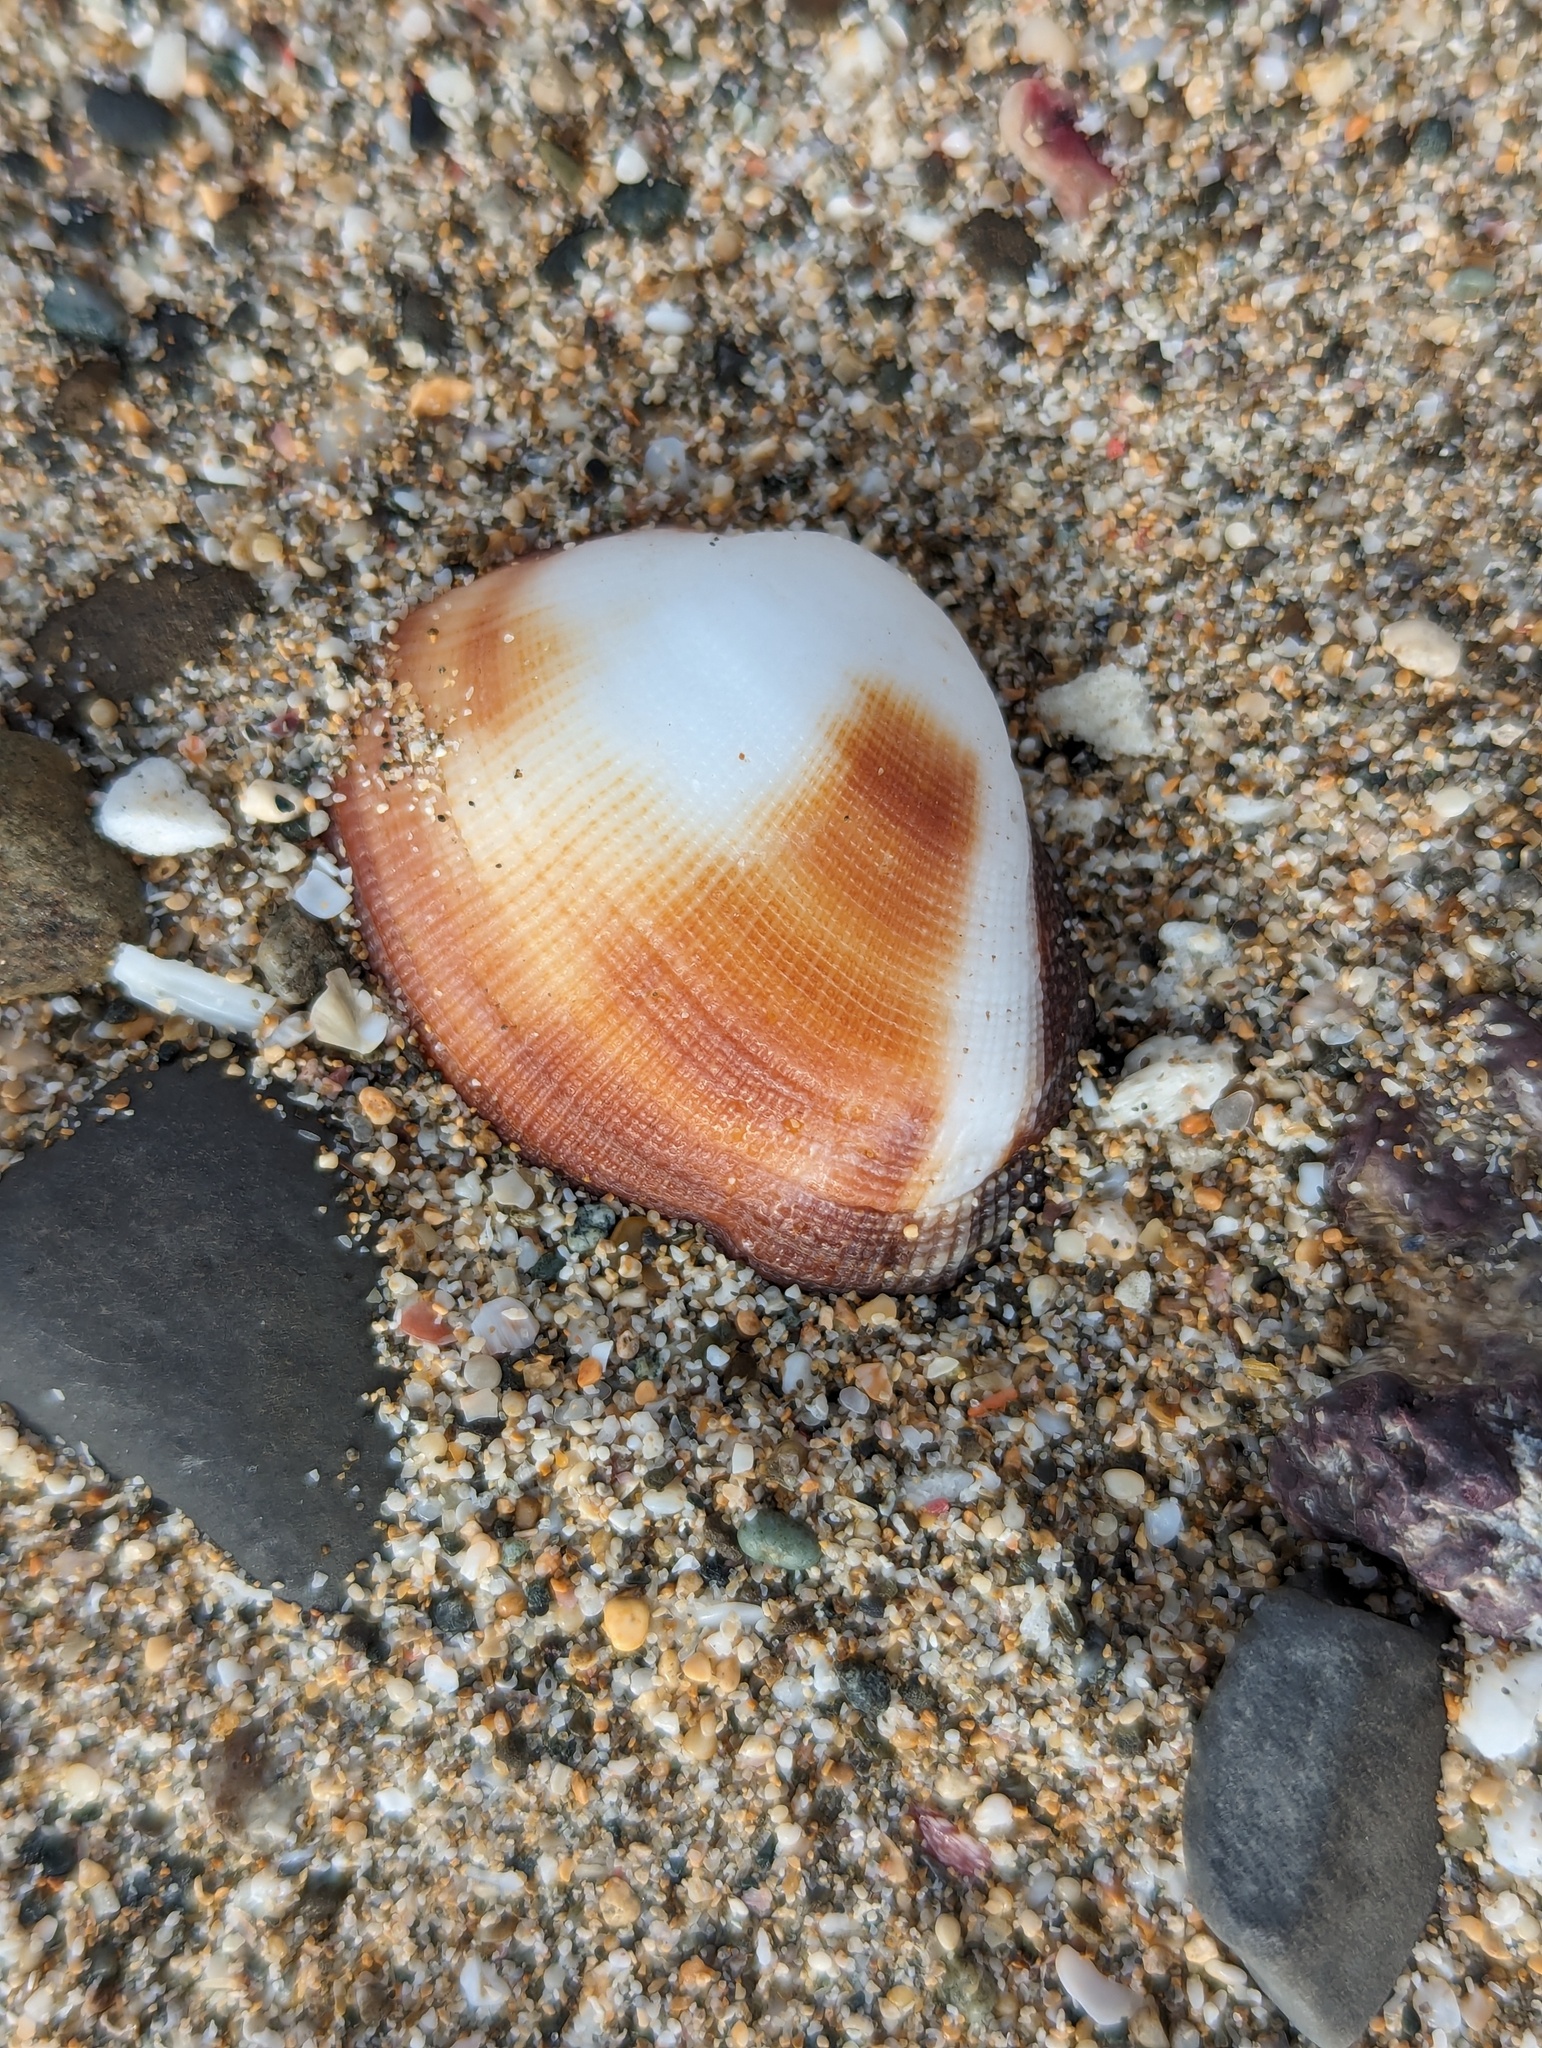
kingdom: Animalia
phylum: Mollusca
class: Bivalvia
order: Arcida
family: Arcidae
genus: Barbatia
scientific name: Barbatia amygdalumtostum
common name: Burnt-almond ark
